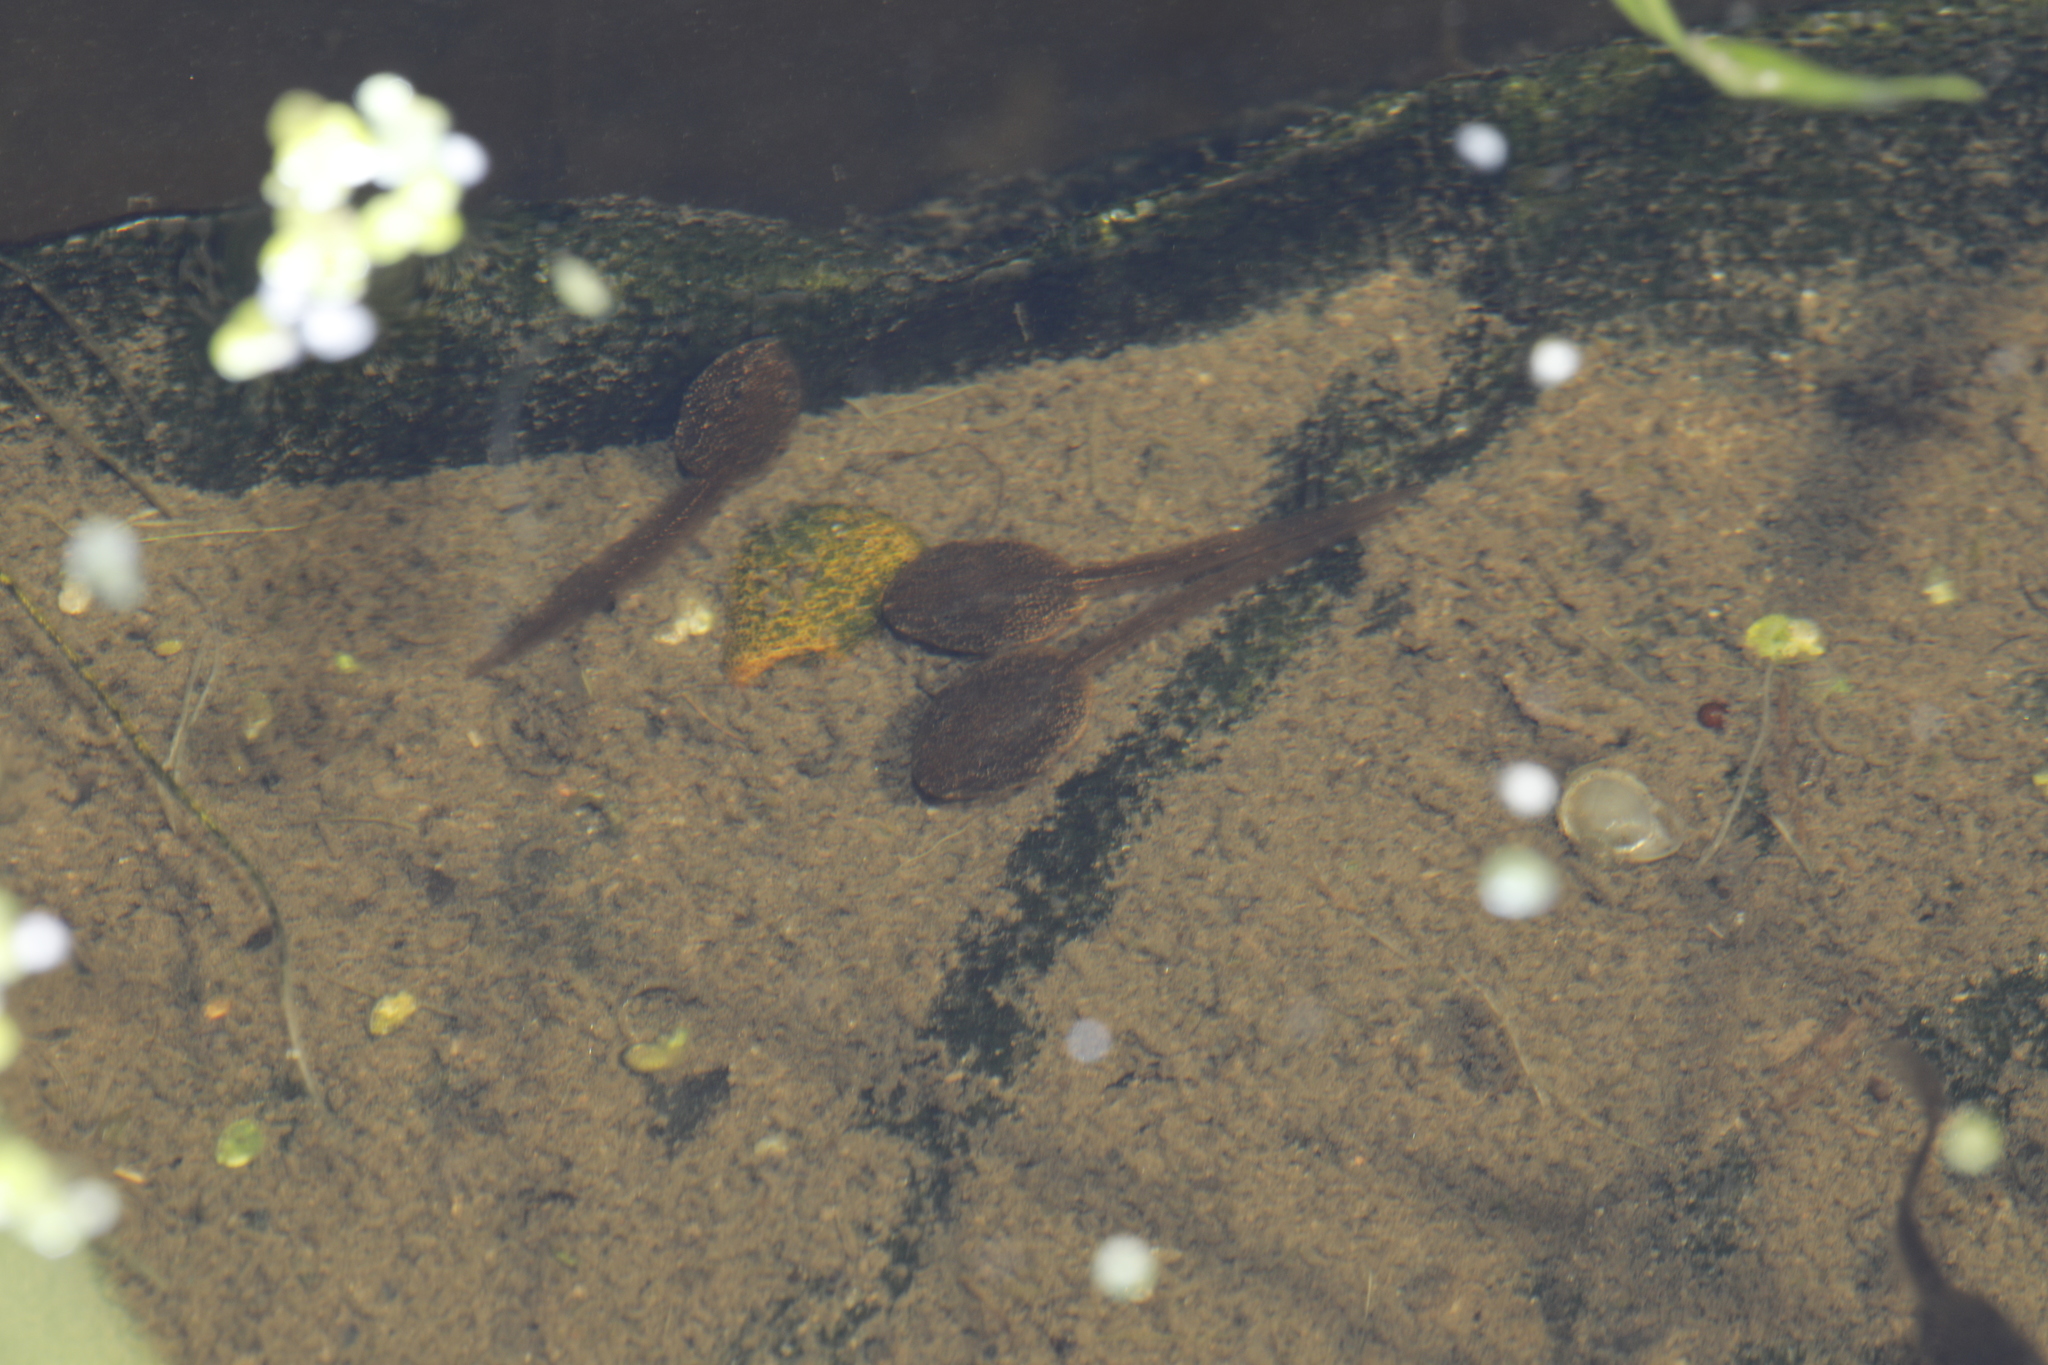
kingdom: Animalia
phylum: Chordata
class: Amphibia
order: Anura
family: Ranidae
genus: Rana
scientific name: Rana temporaria
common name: Common frog
